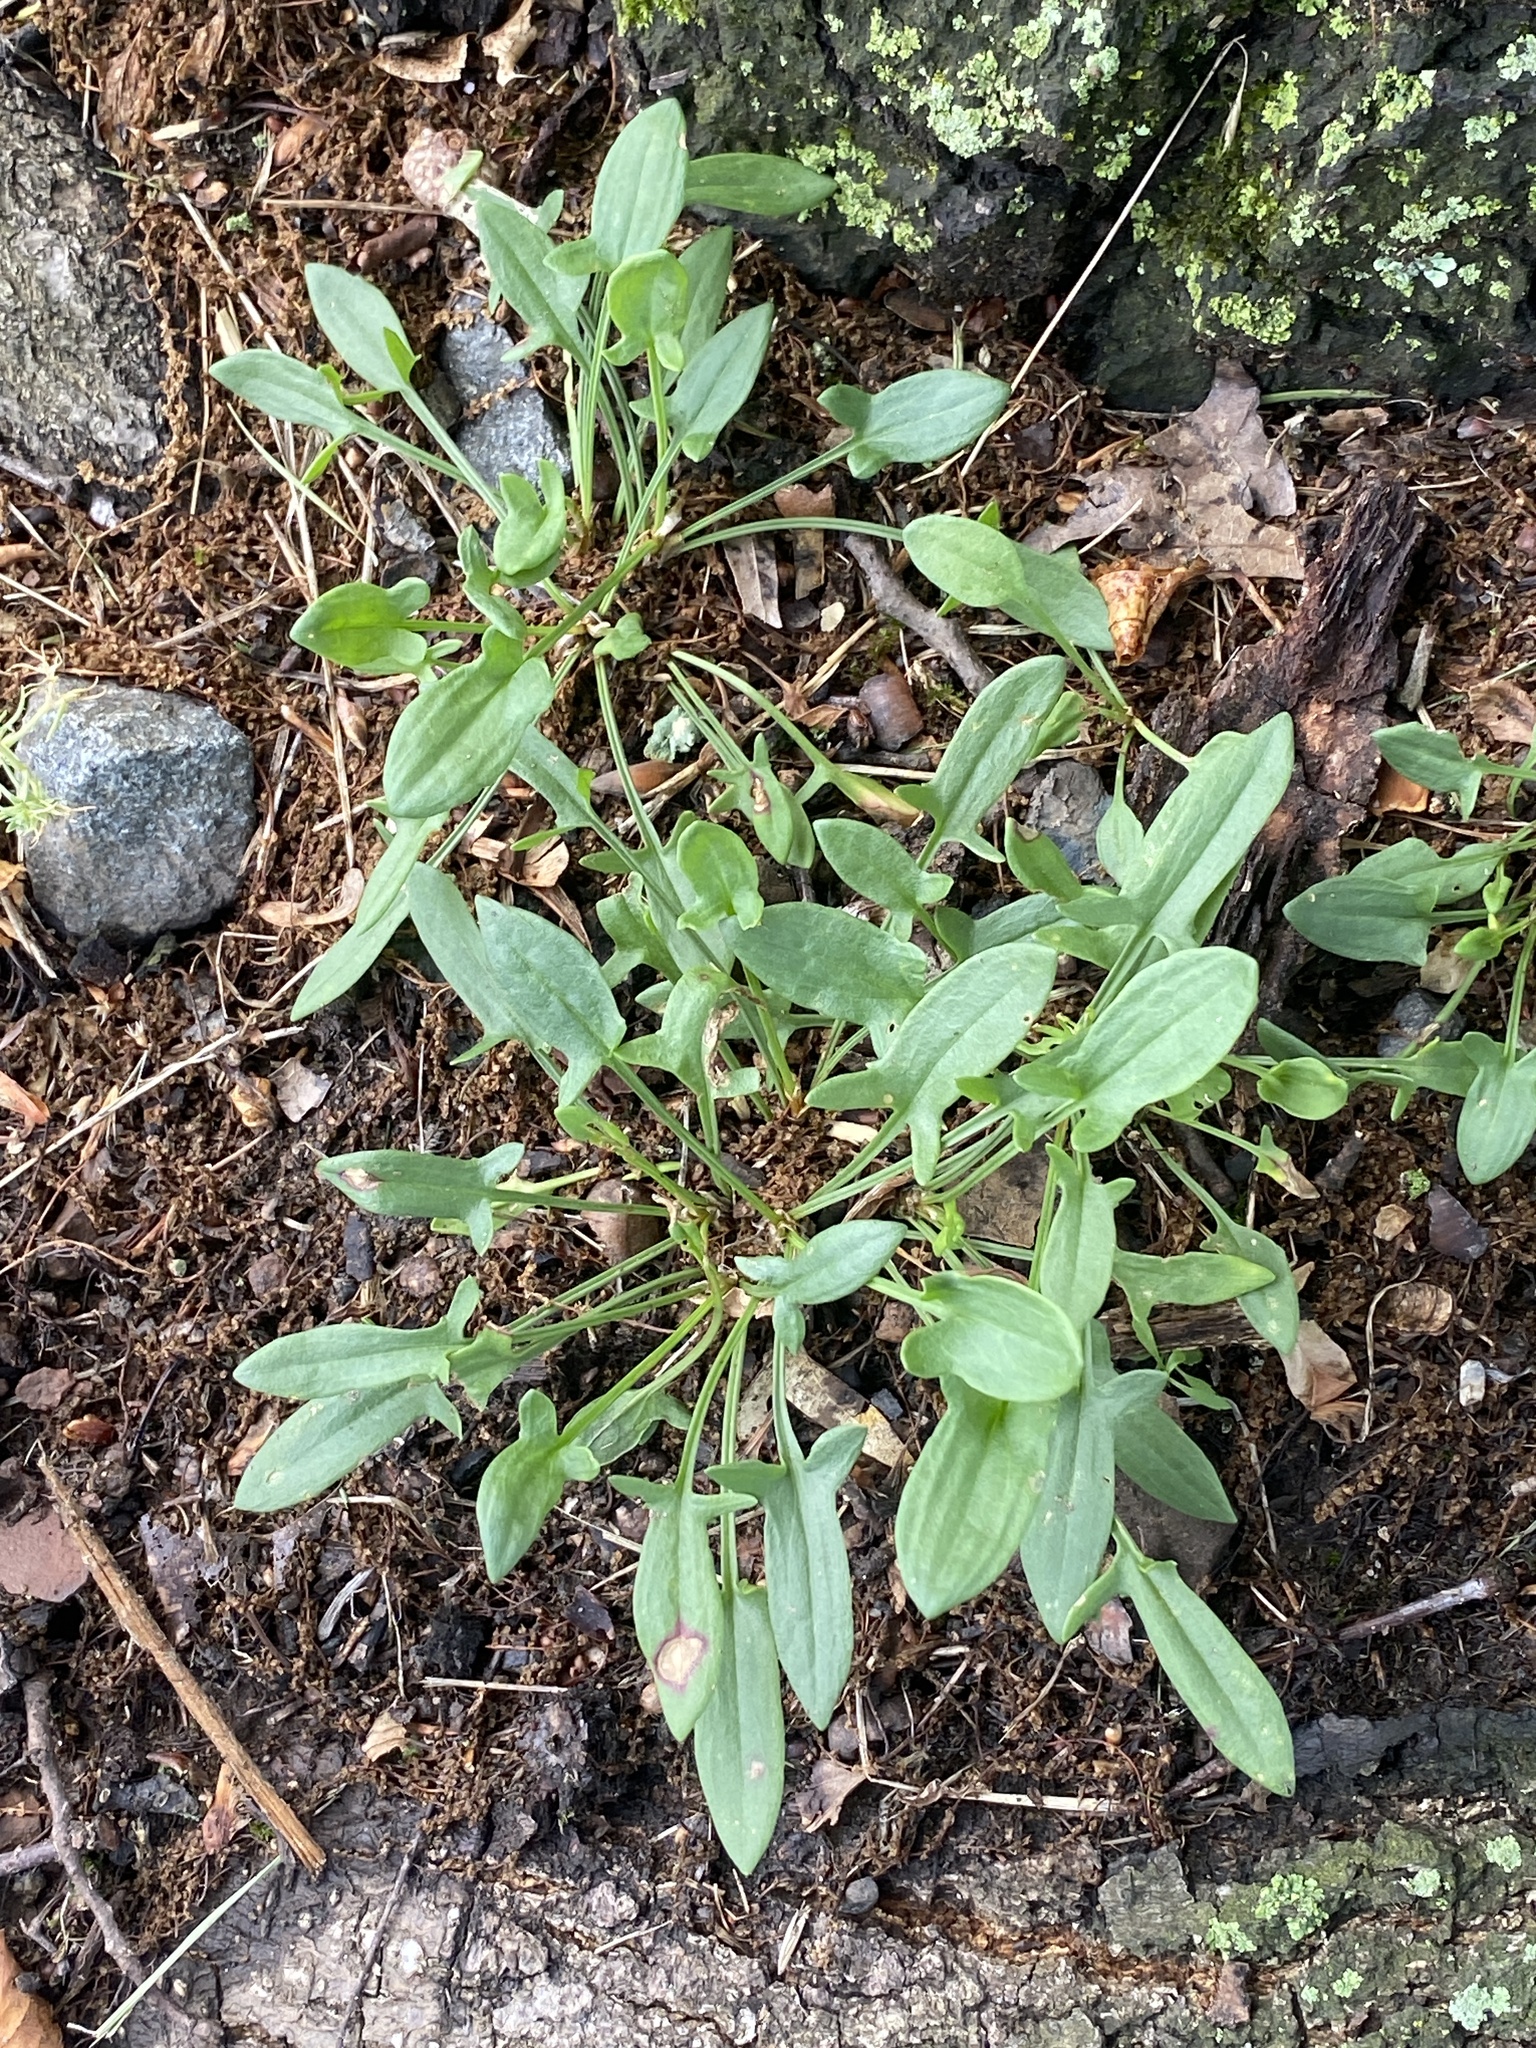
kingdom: Plantae
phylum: Tracheophyta
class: Magnoliopsida
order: Caryophyllales
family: Polygonaceae
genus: Rumex
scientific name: Rumex acetosella
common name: Common sheep sorrel
